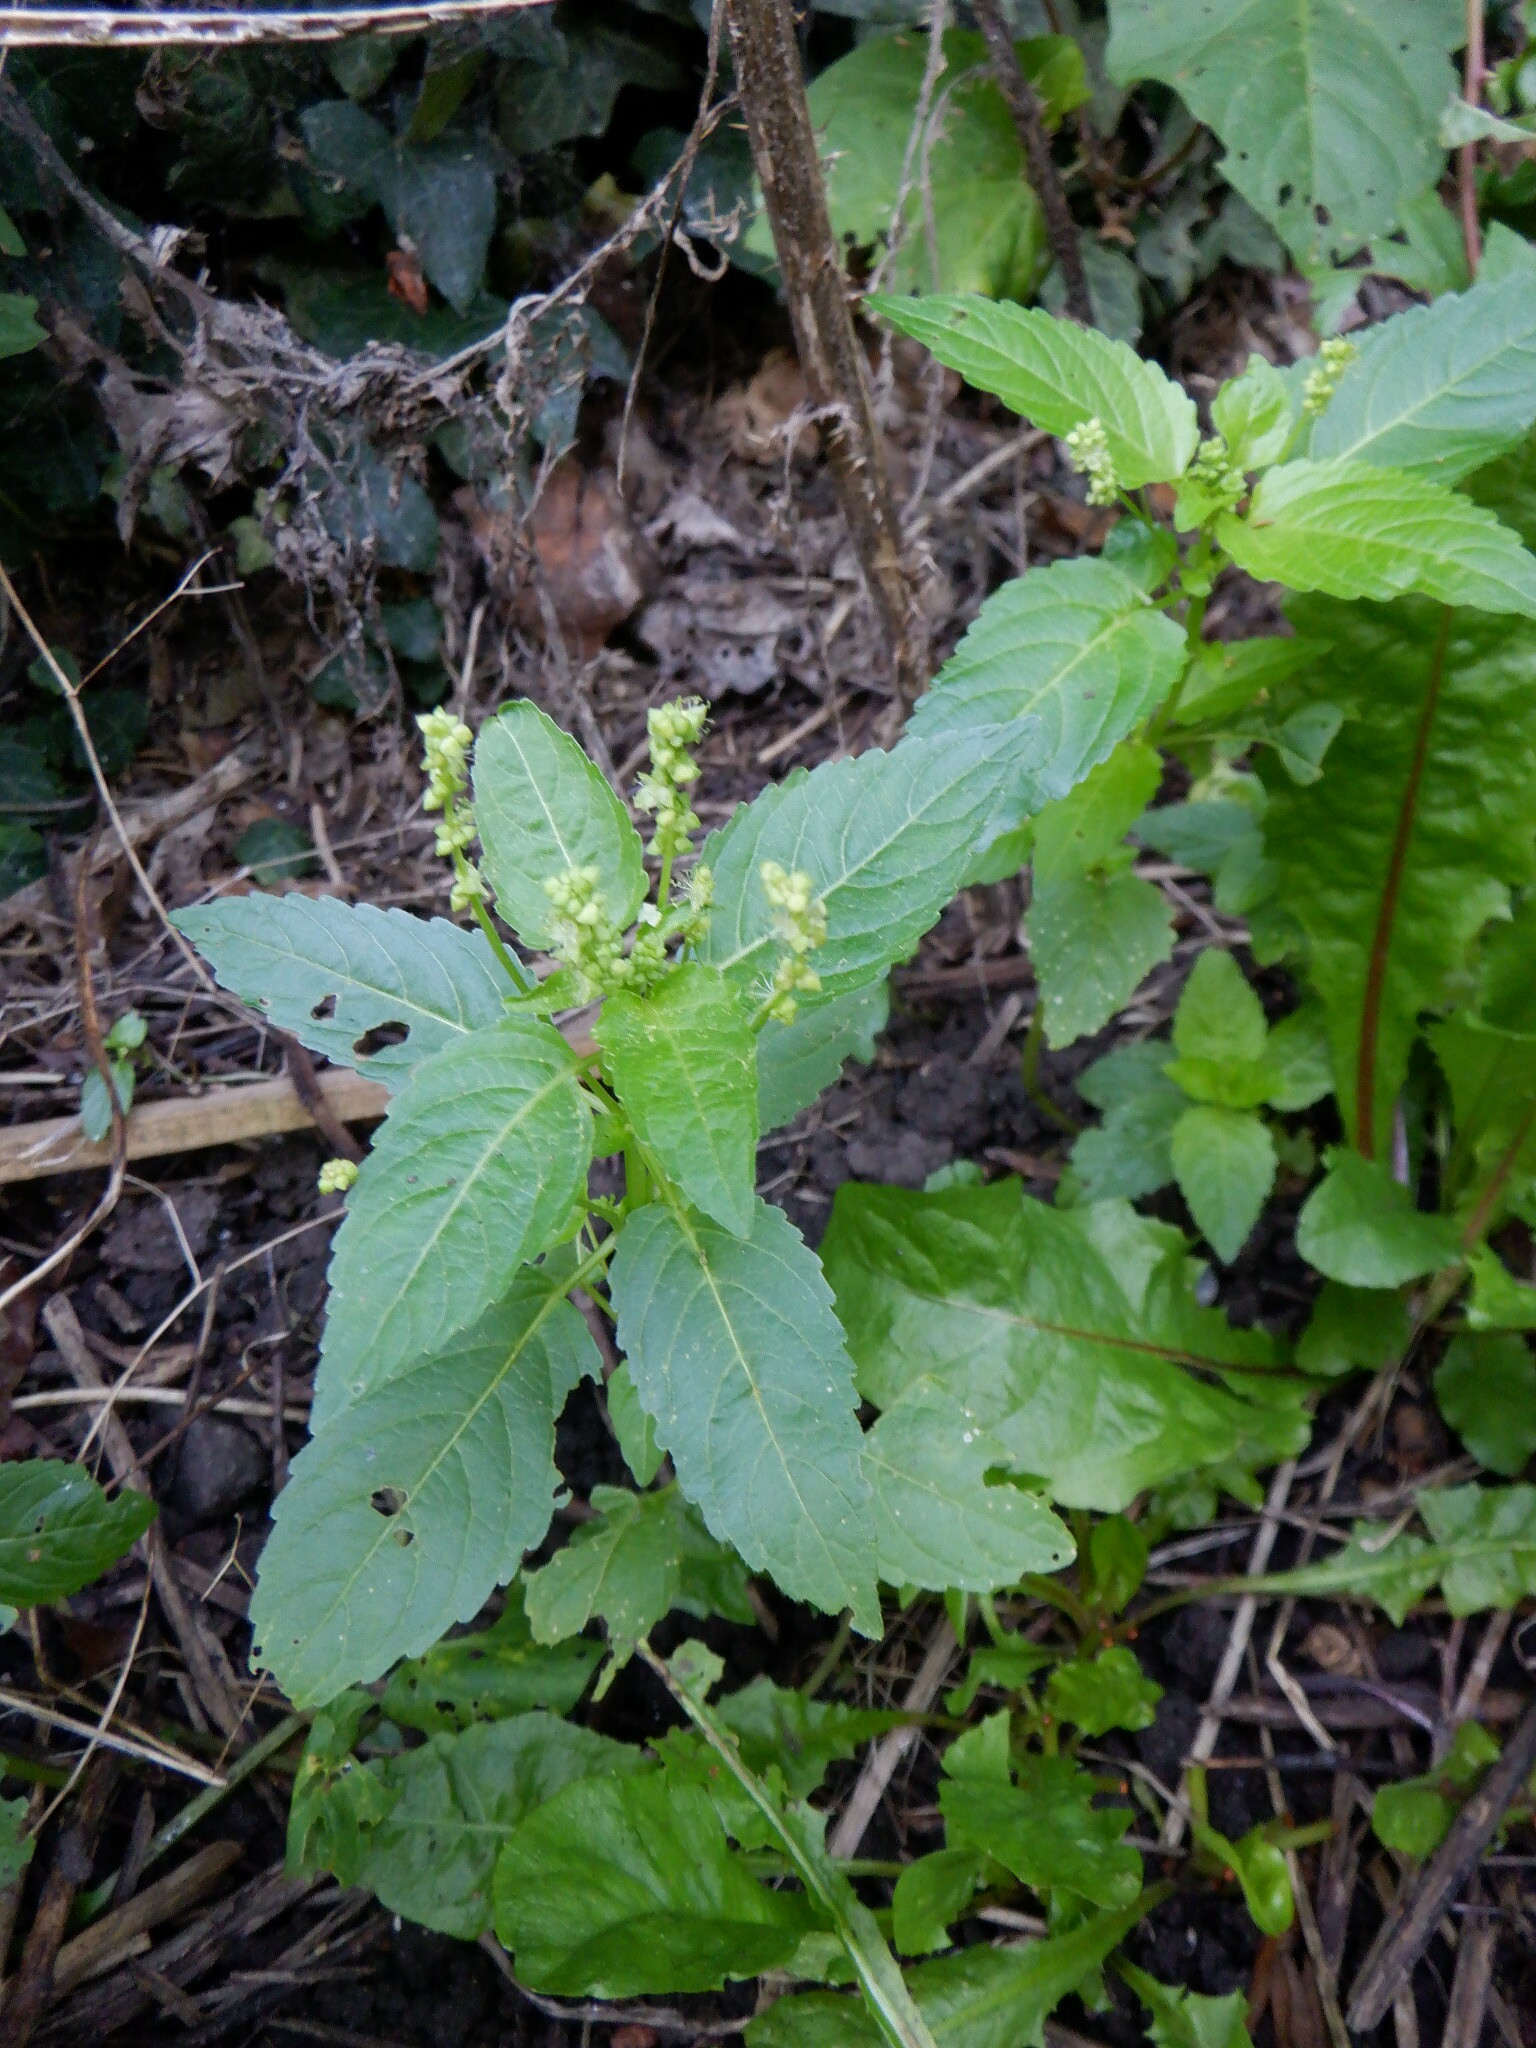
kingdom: Plantae
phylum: Tracheophyta
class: Magnoliopsida
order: Malpighiales
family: Euphorbiaceae
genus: Mercurialis
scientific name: Mercurialis annua
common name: Annual mercury
